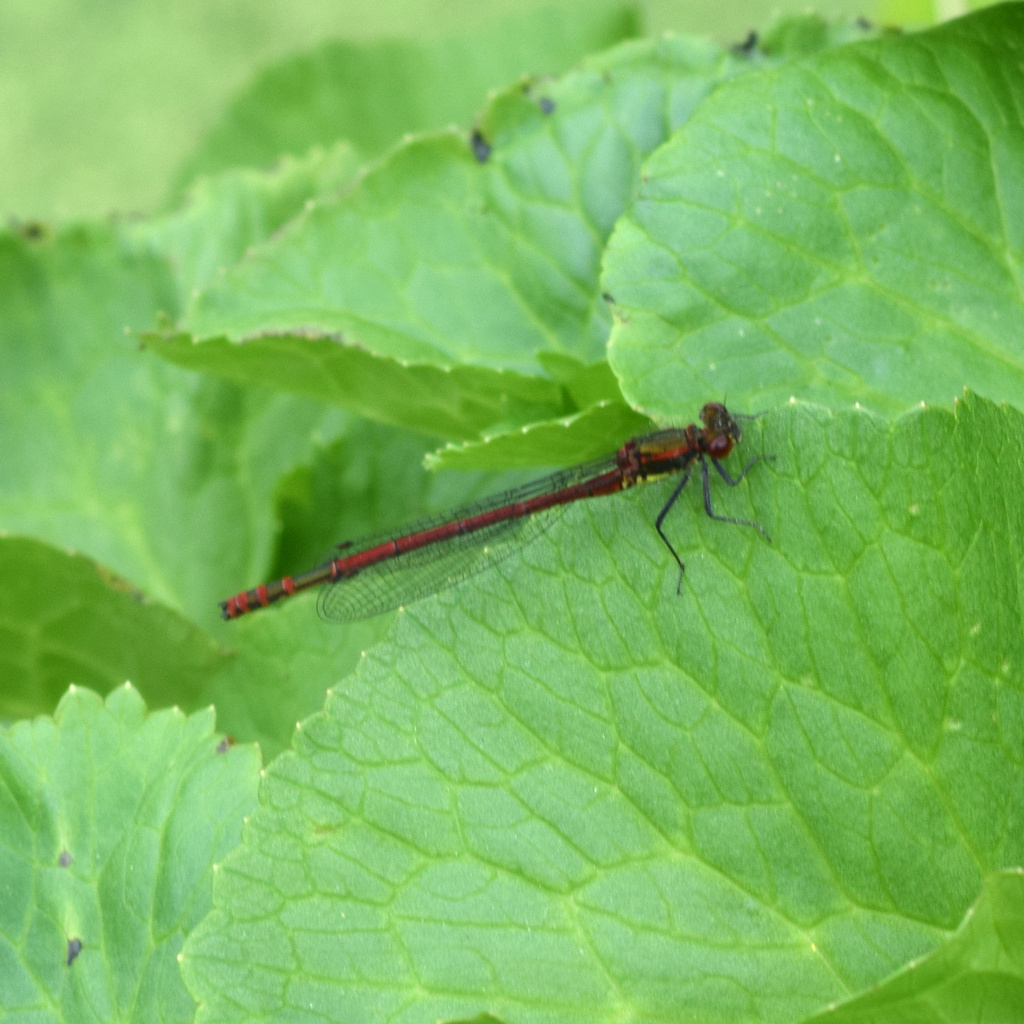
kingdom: Animalia
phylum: Arthropoda
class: Insecta
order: Odonata
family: Coenagrionidae
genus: Pyrrhosoma
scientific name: Pyrrhosoma nymphula
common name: Large red damsel
